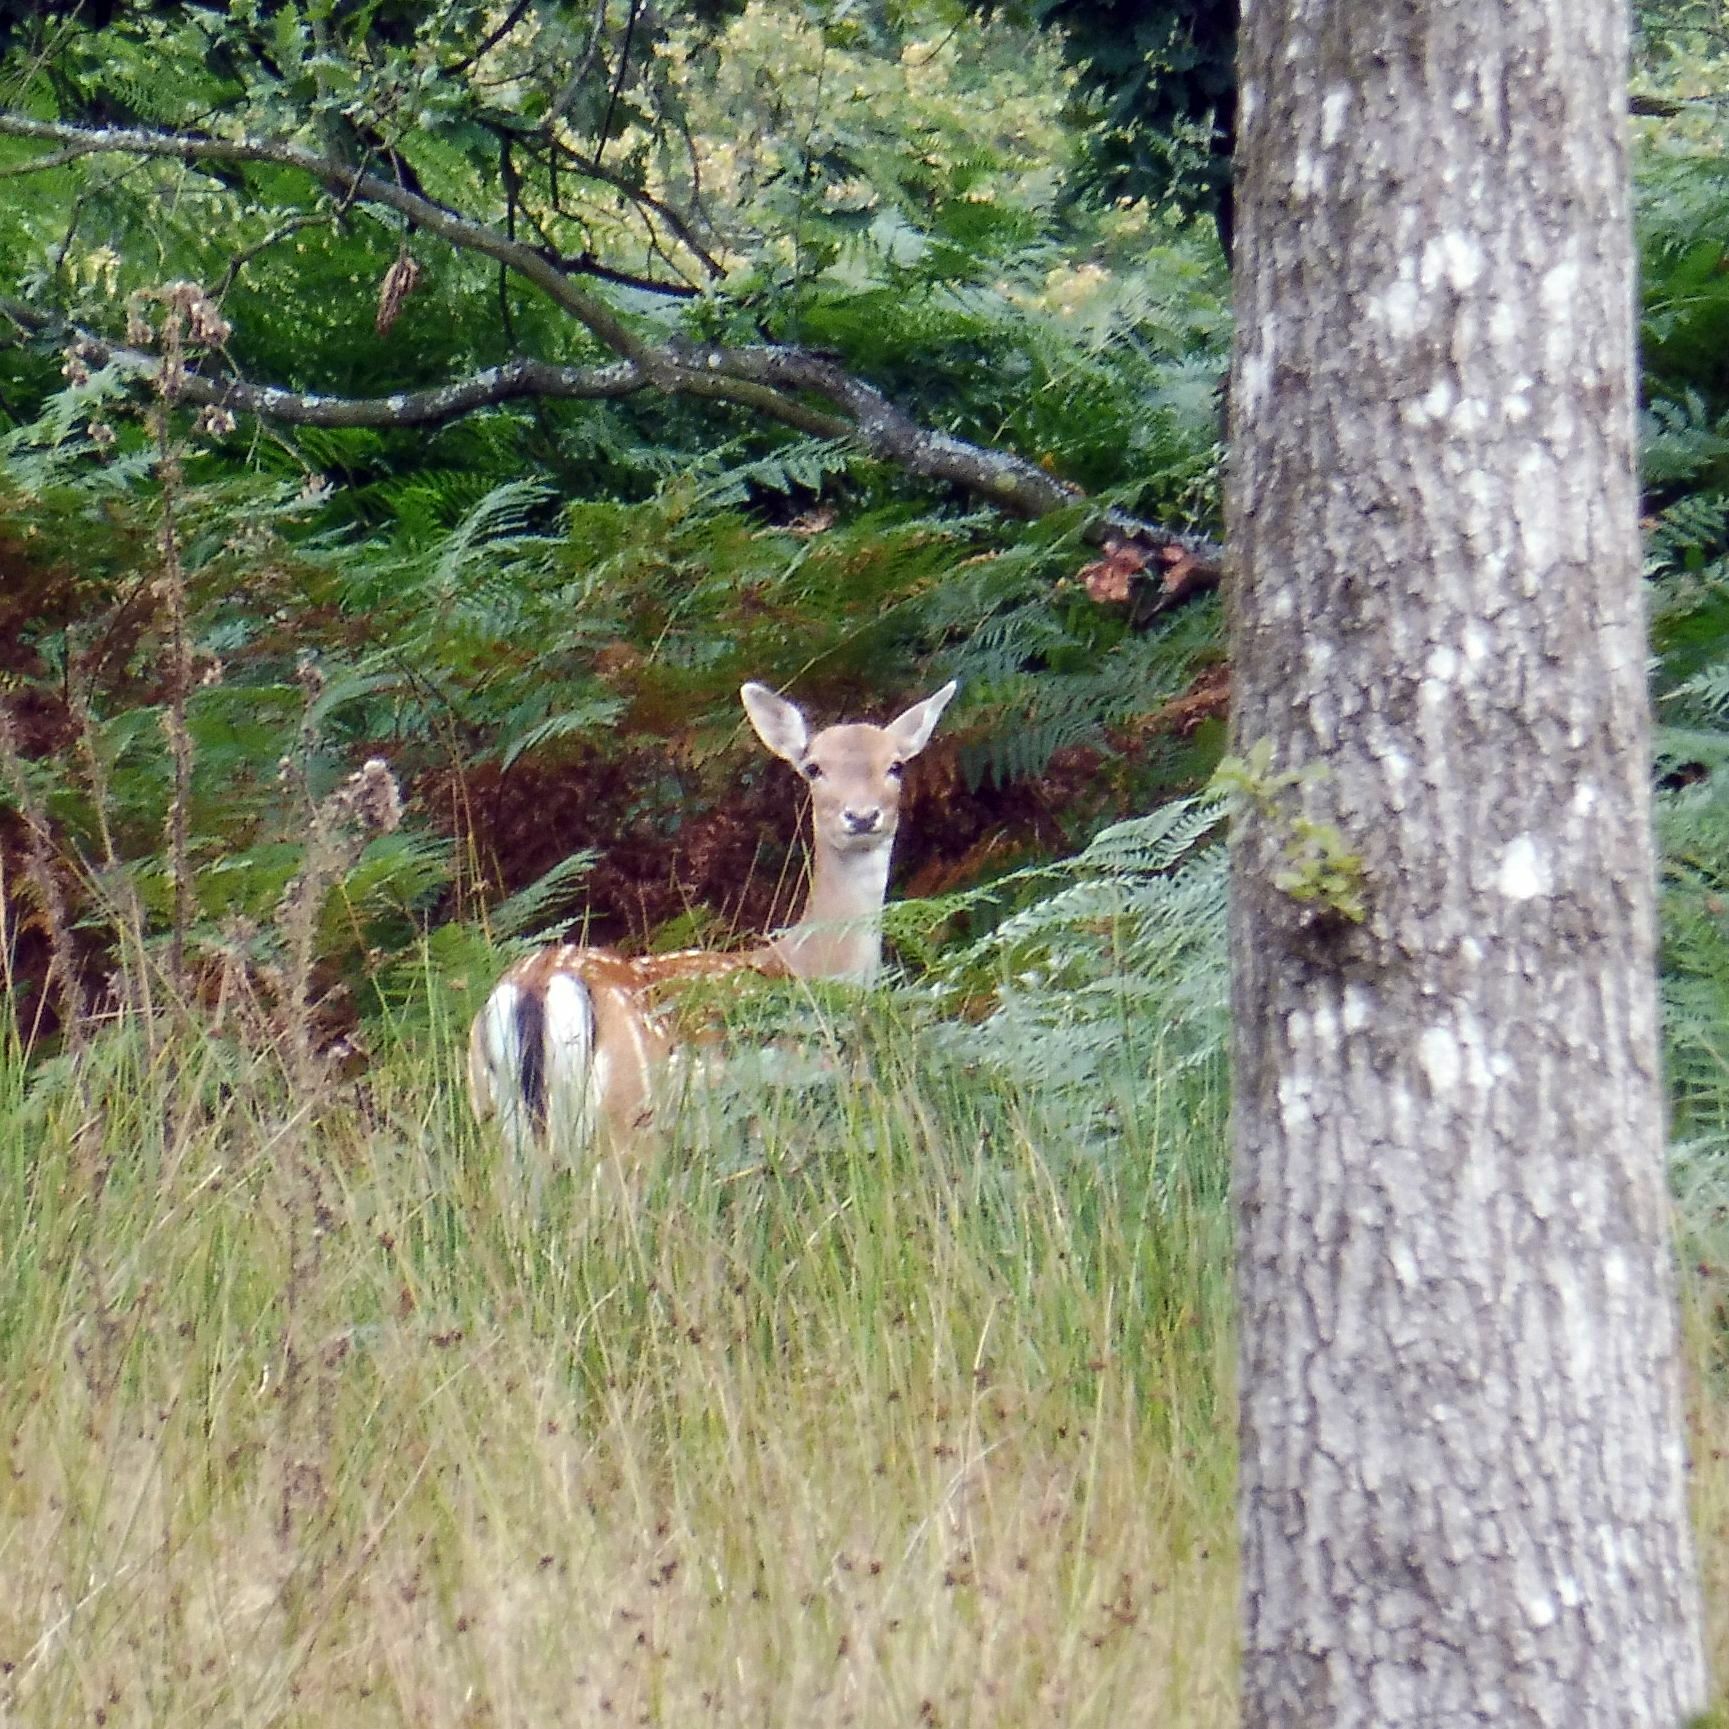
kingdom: Animalia
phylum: Chordata
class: Mammalia
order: Artiodactyla
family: Cervidae
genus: Dama
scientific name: Dama dama
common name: Fallow deer
